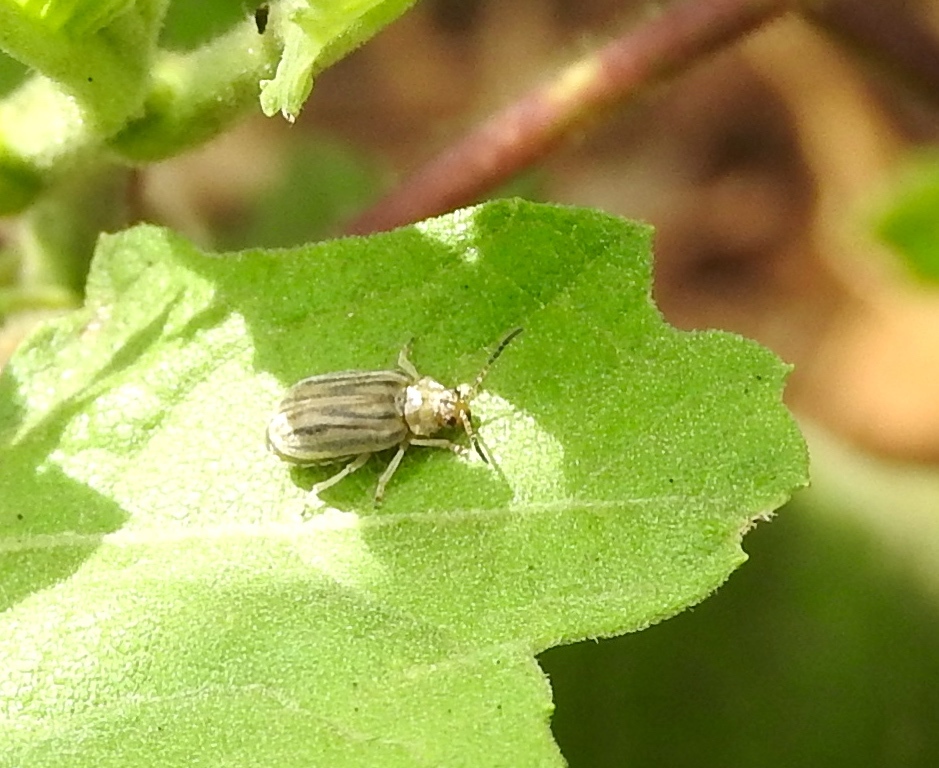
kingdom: Animalia
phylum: Arthropoda
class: Insecta
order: Coleoptera
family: Chrysomelidae
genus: Ophraella
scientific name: Ophraella
